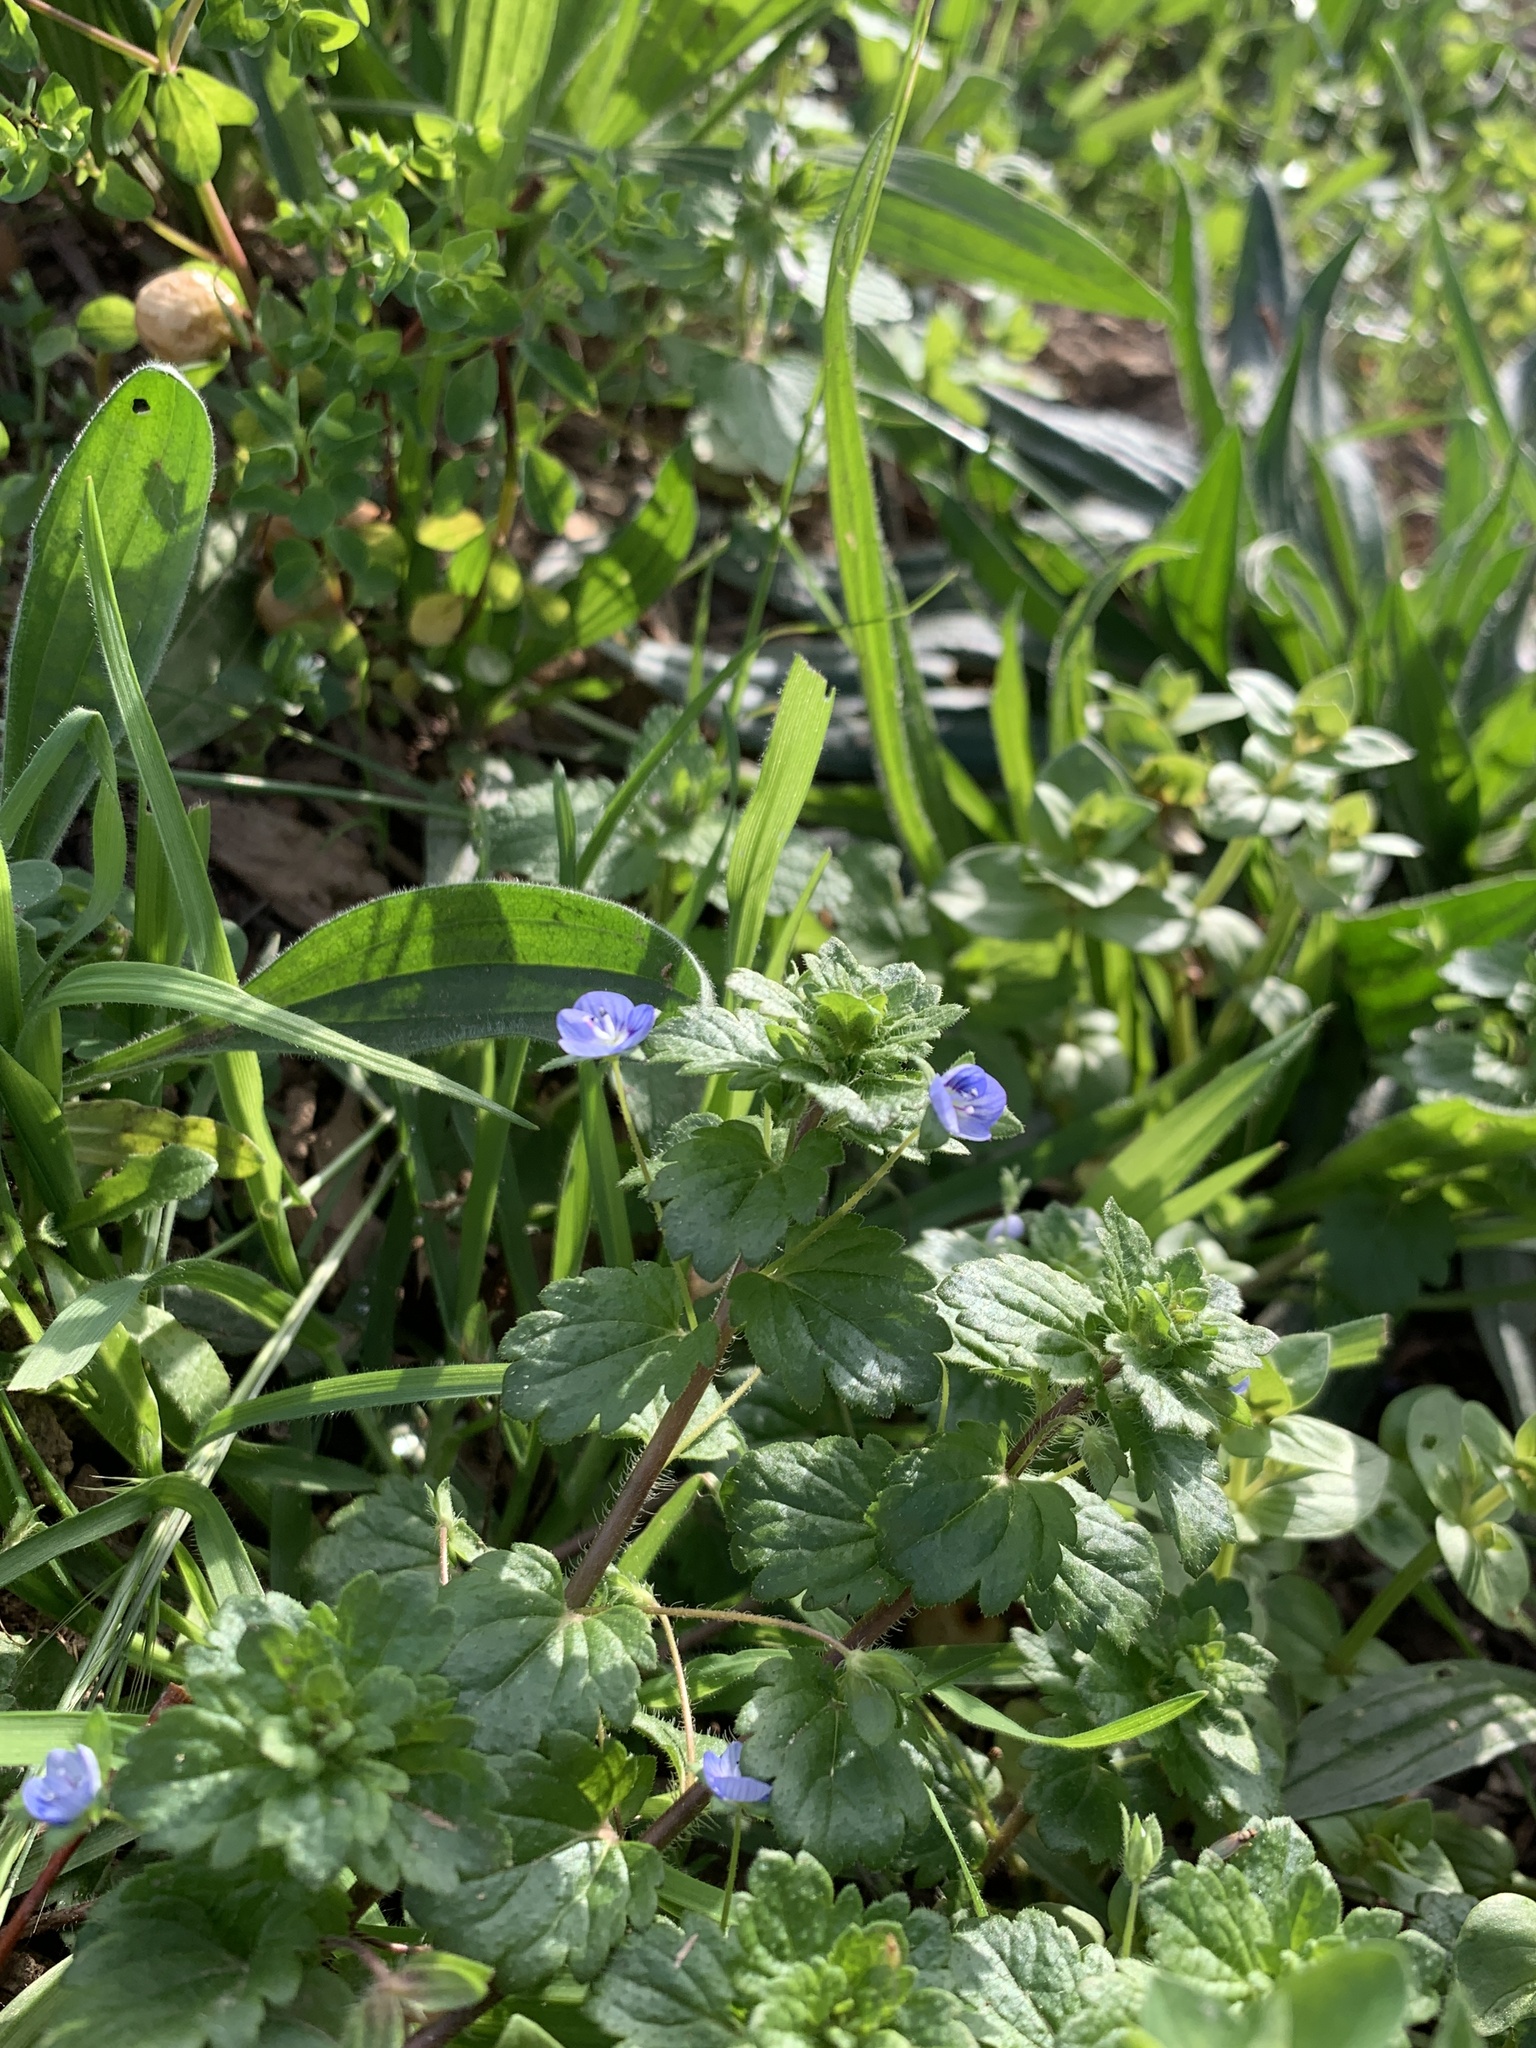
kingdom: Plantae
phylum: Tracheophyta
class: Magnoliopsida
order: Lamiales
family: Plantaginaceae
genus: Veronica
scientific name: Veronica persica
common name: Common field-speedwell
